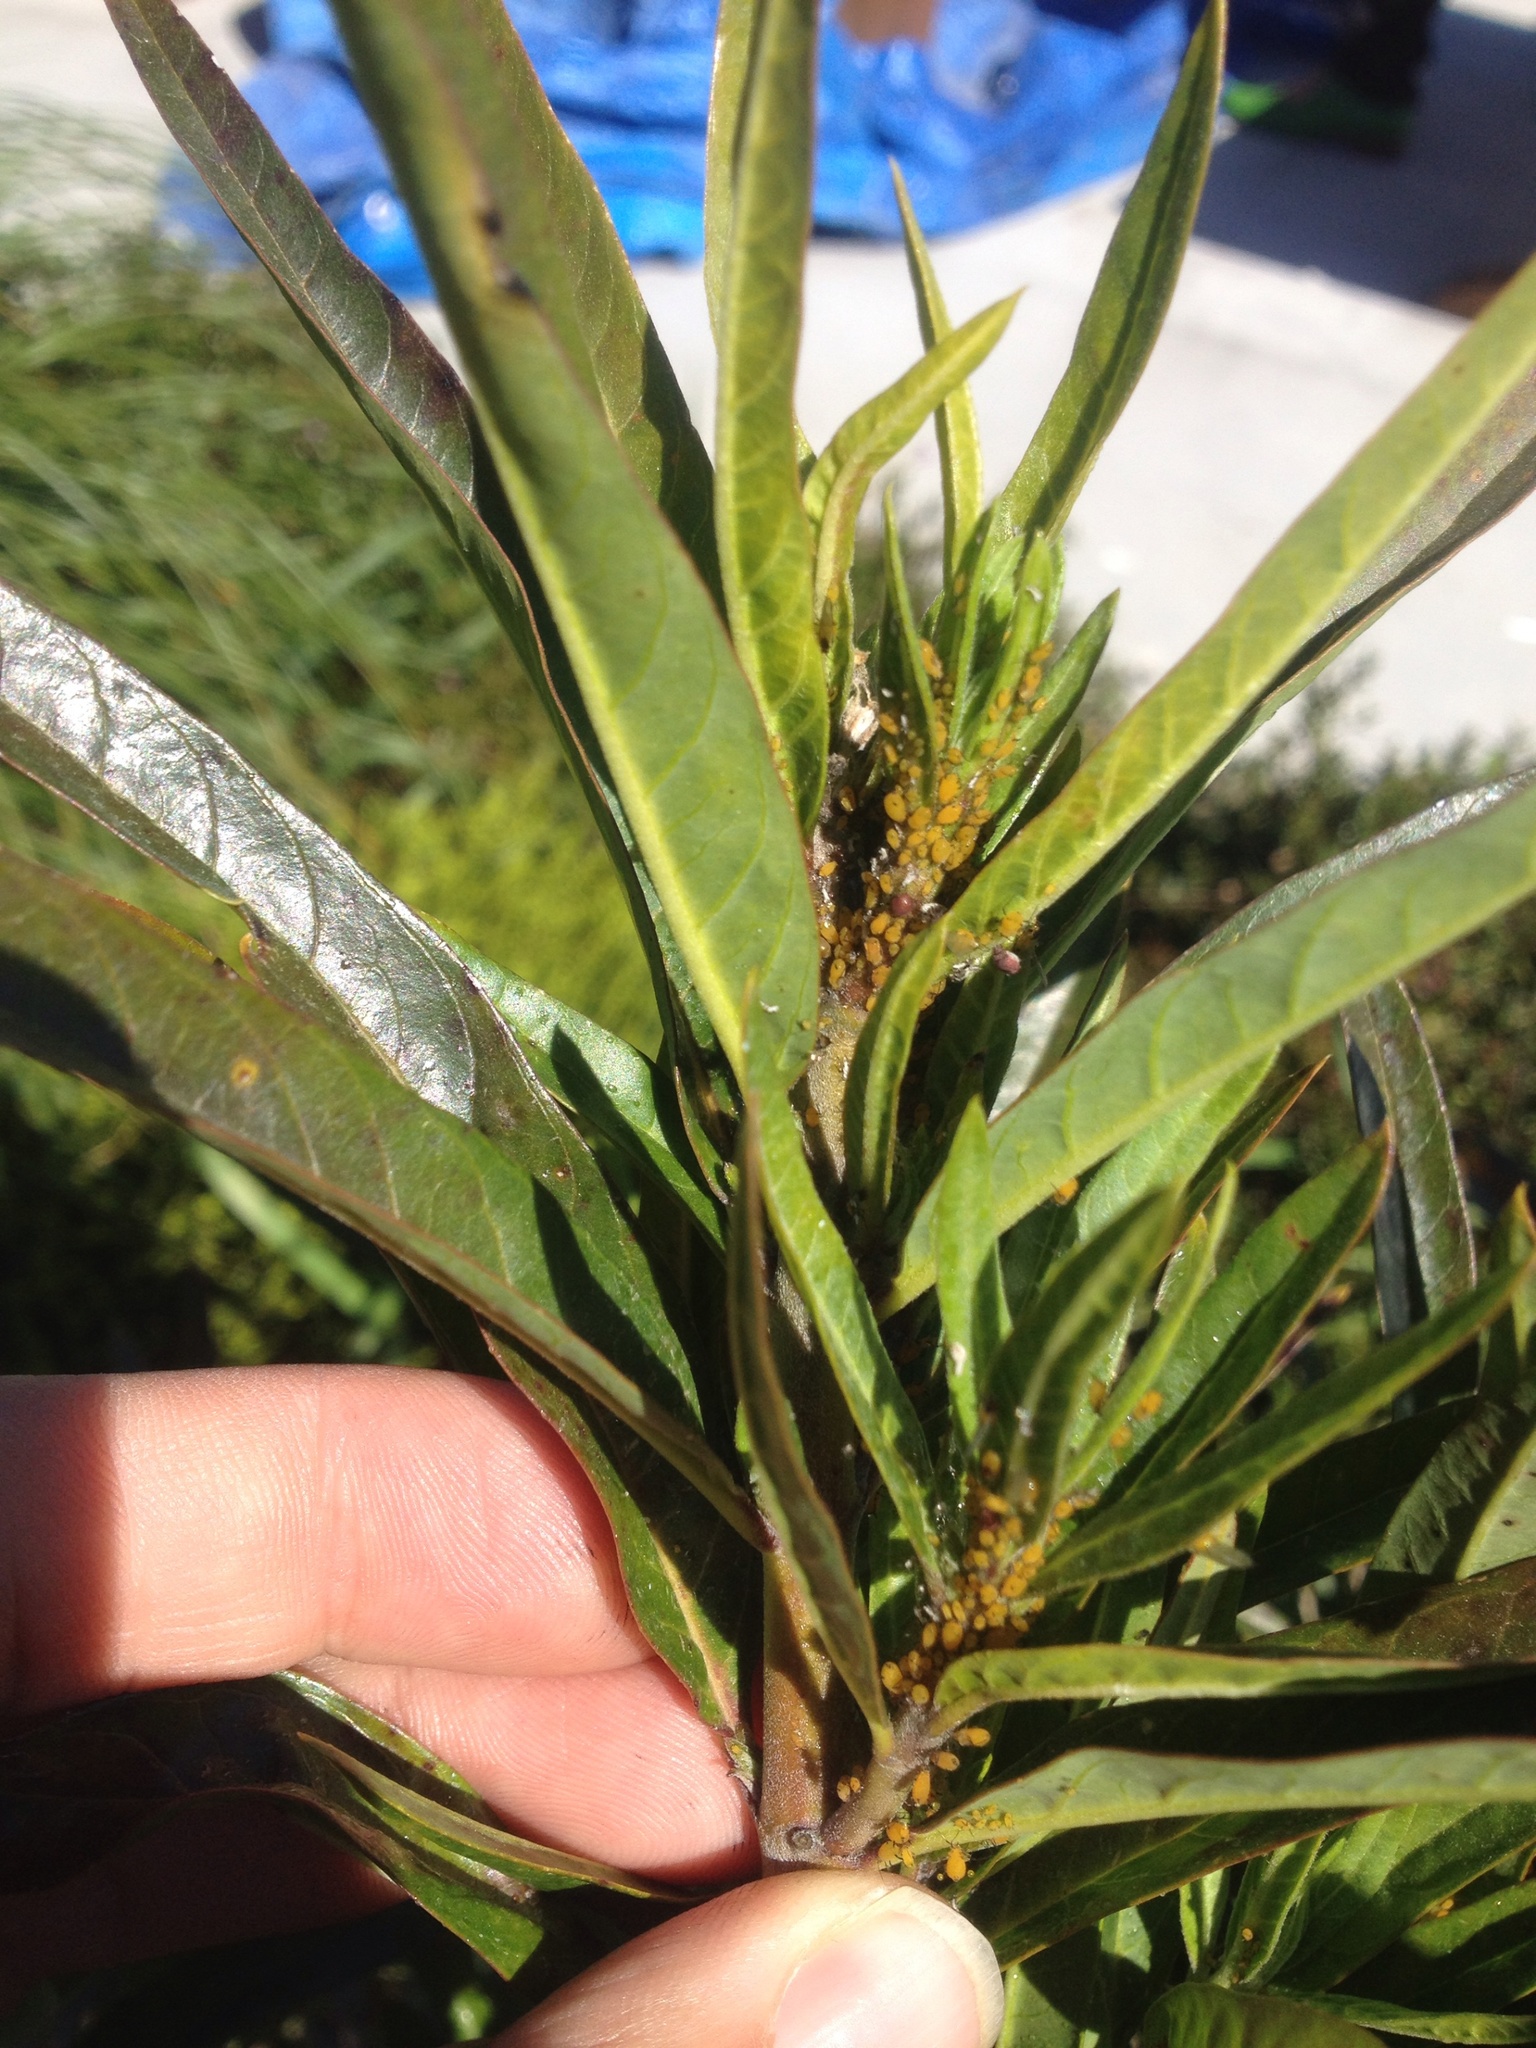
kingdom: Animalia
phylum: Arthropoda
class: Insecta
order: Hemiptera
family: Aphididae
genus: Aphis
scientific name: Aphis nerii
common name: Oleander aphid
